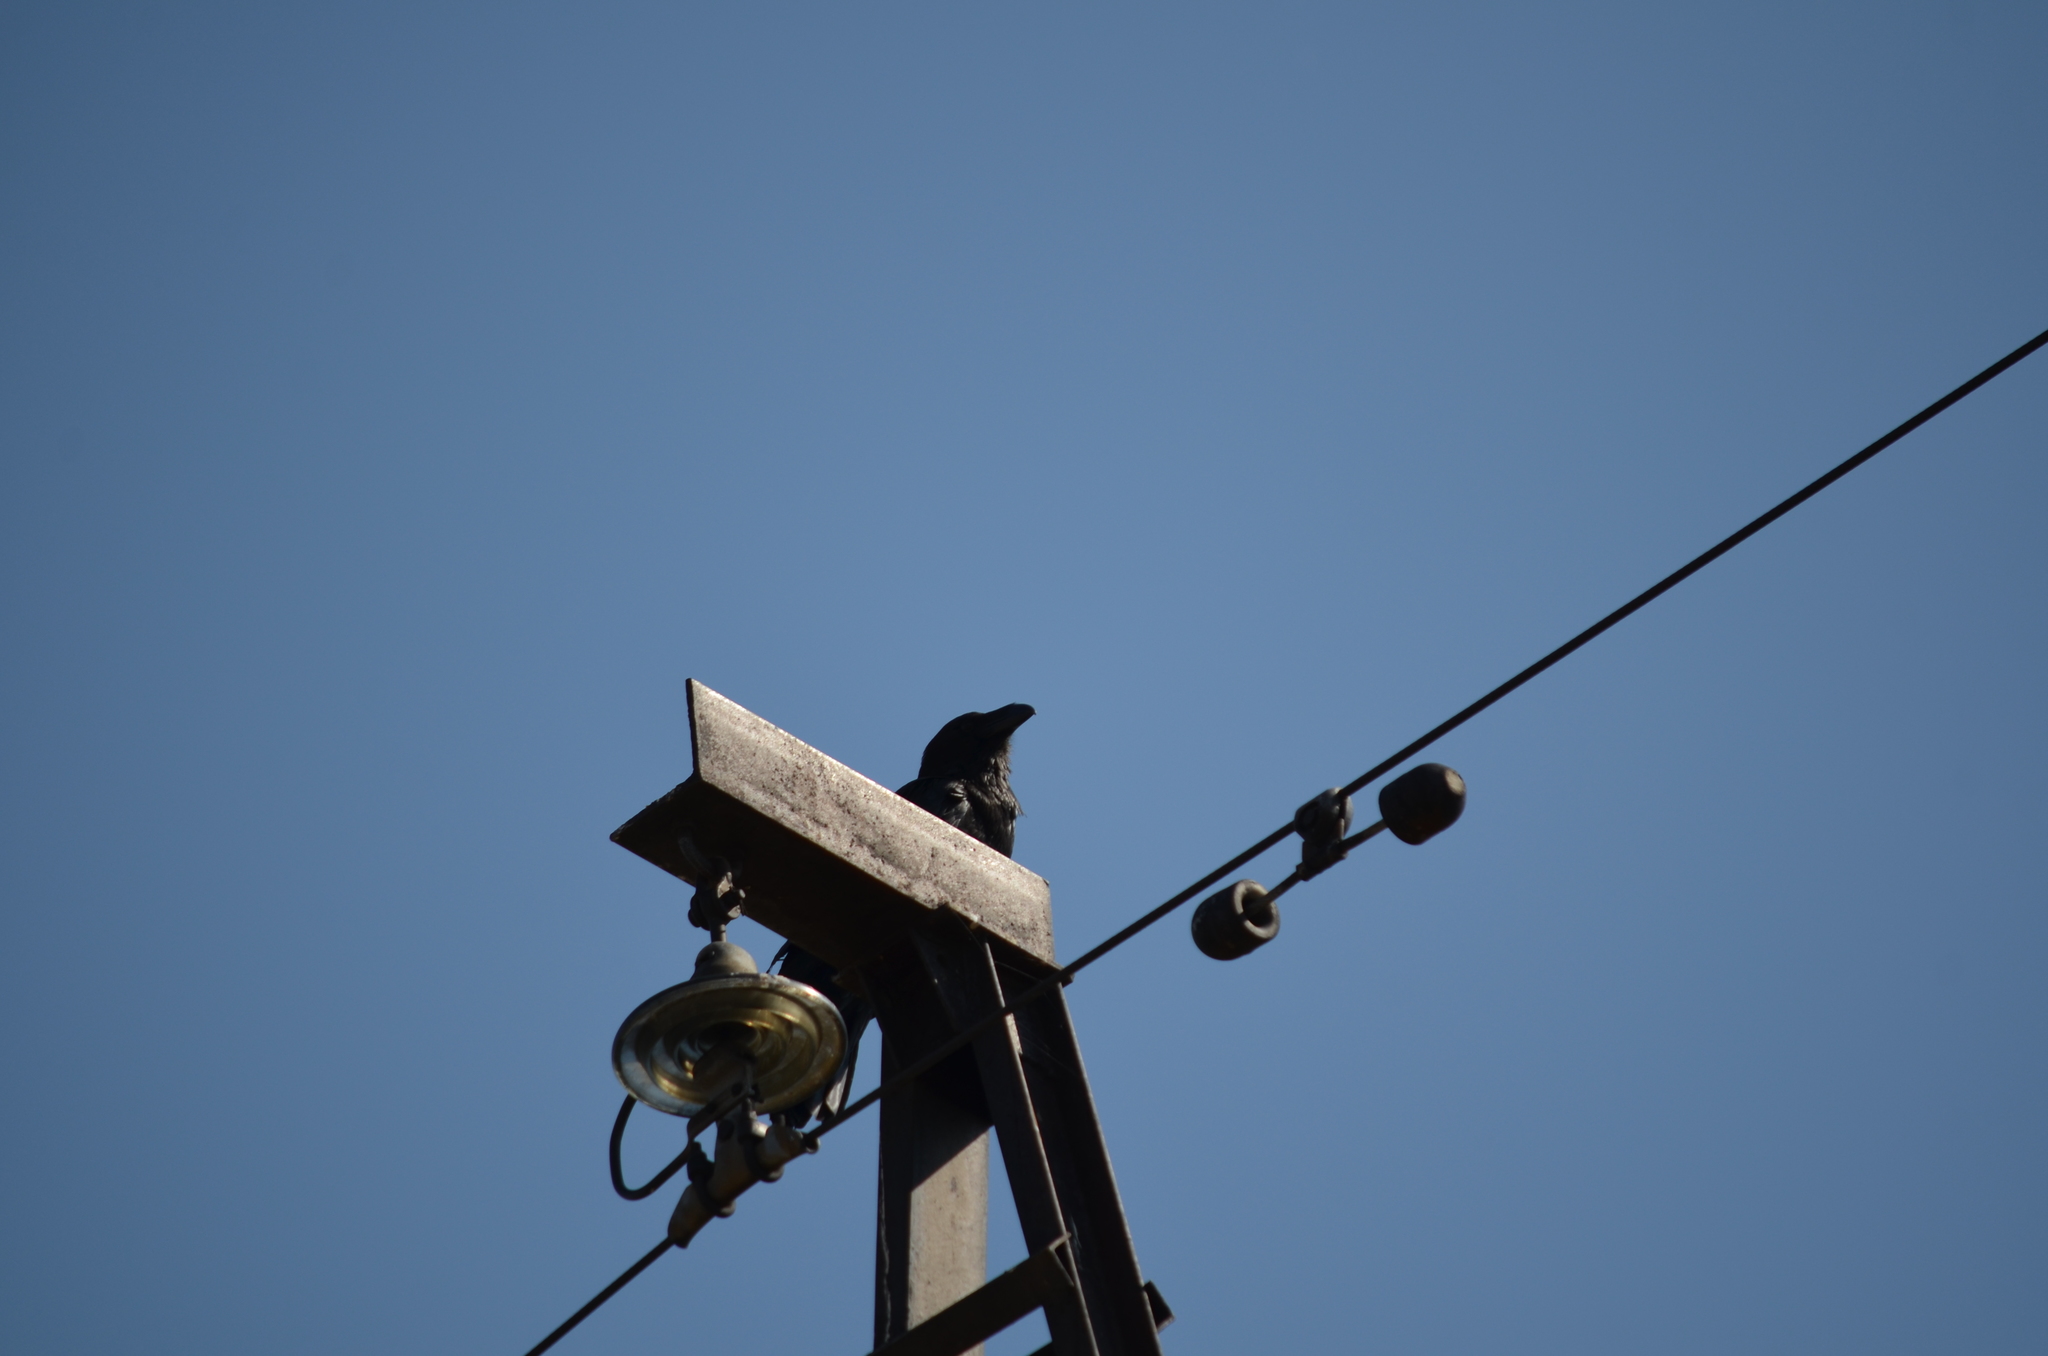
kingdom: Animalia
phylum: Chordata
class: Aves
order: Passeriformes
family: Corvidae
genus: Corvus
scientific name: Corvus corax
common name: Common raven
